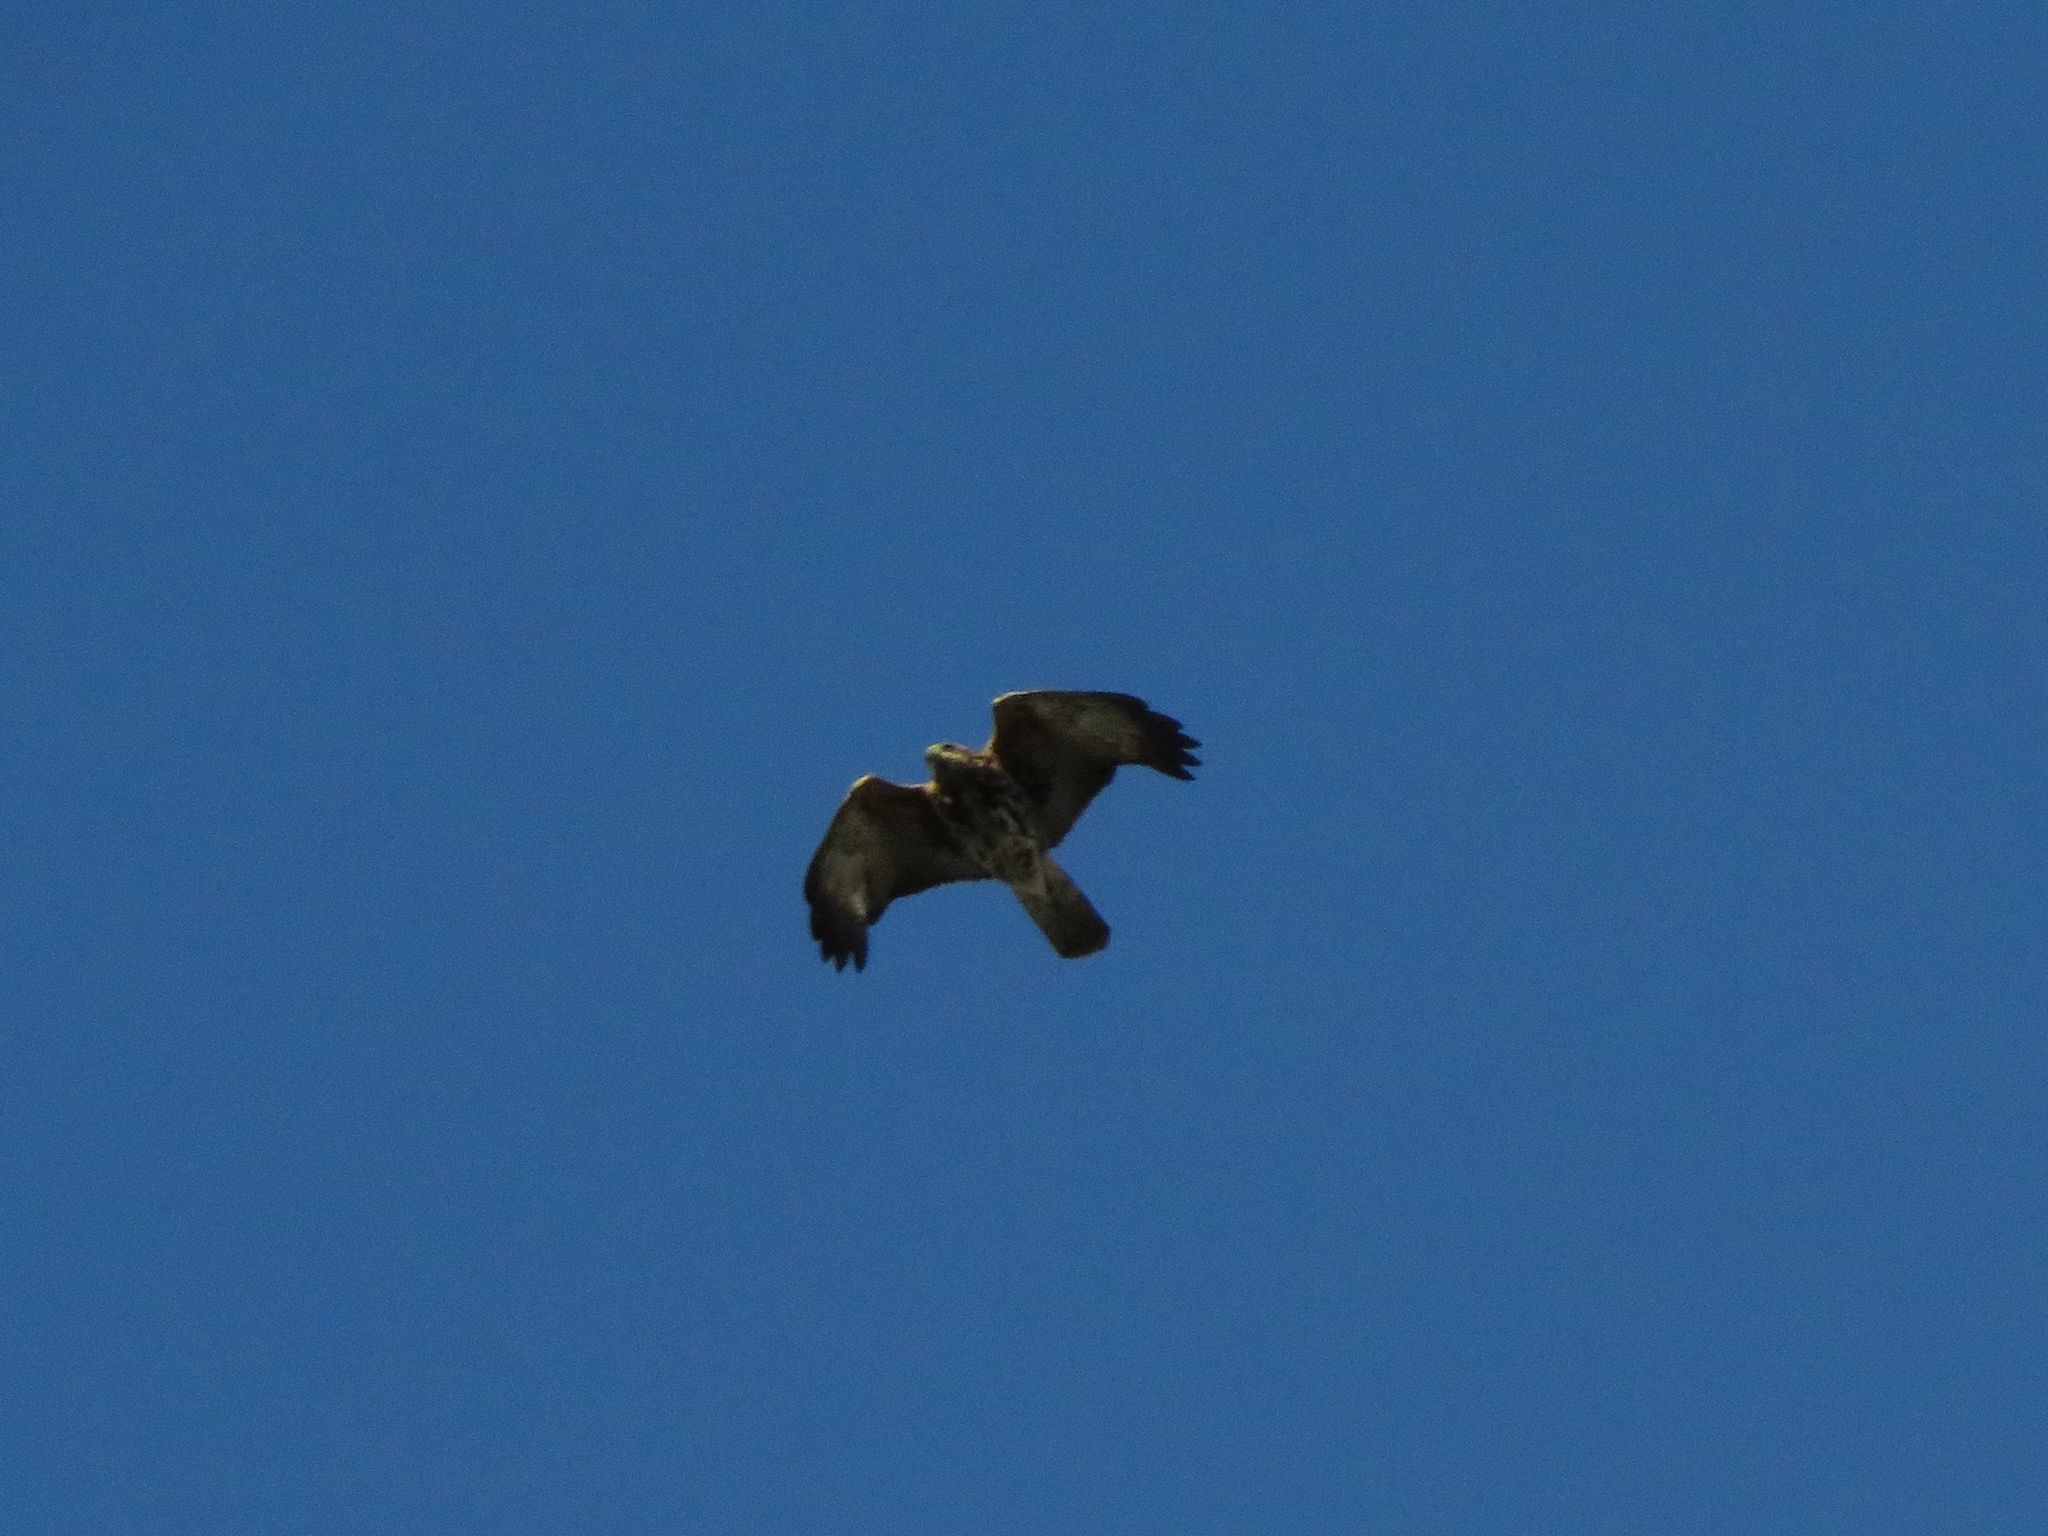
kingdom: Animalia
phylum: Chordata
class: Aves
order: Accipitriformes
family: Accipitridae
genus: Parabuteo
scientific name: Parabuteo unicinctus
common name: Harris's hawk
